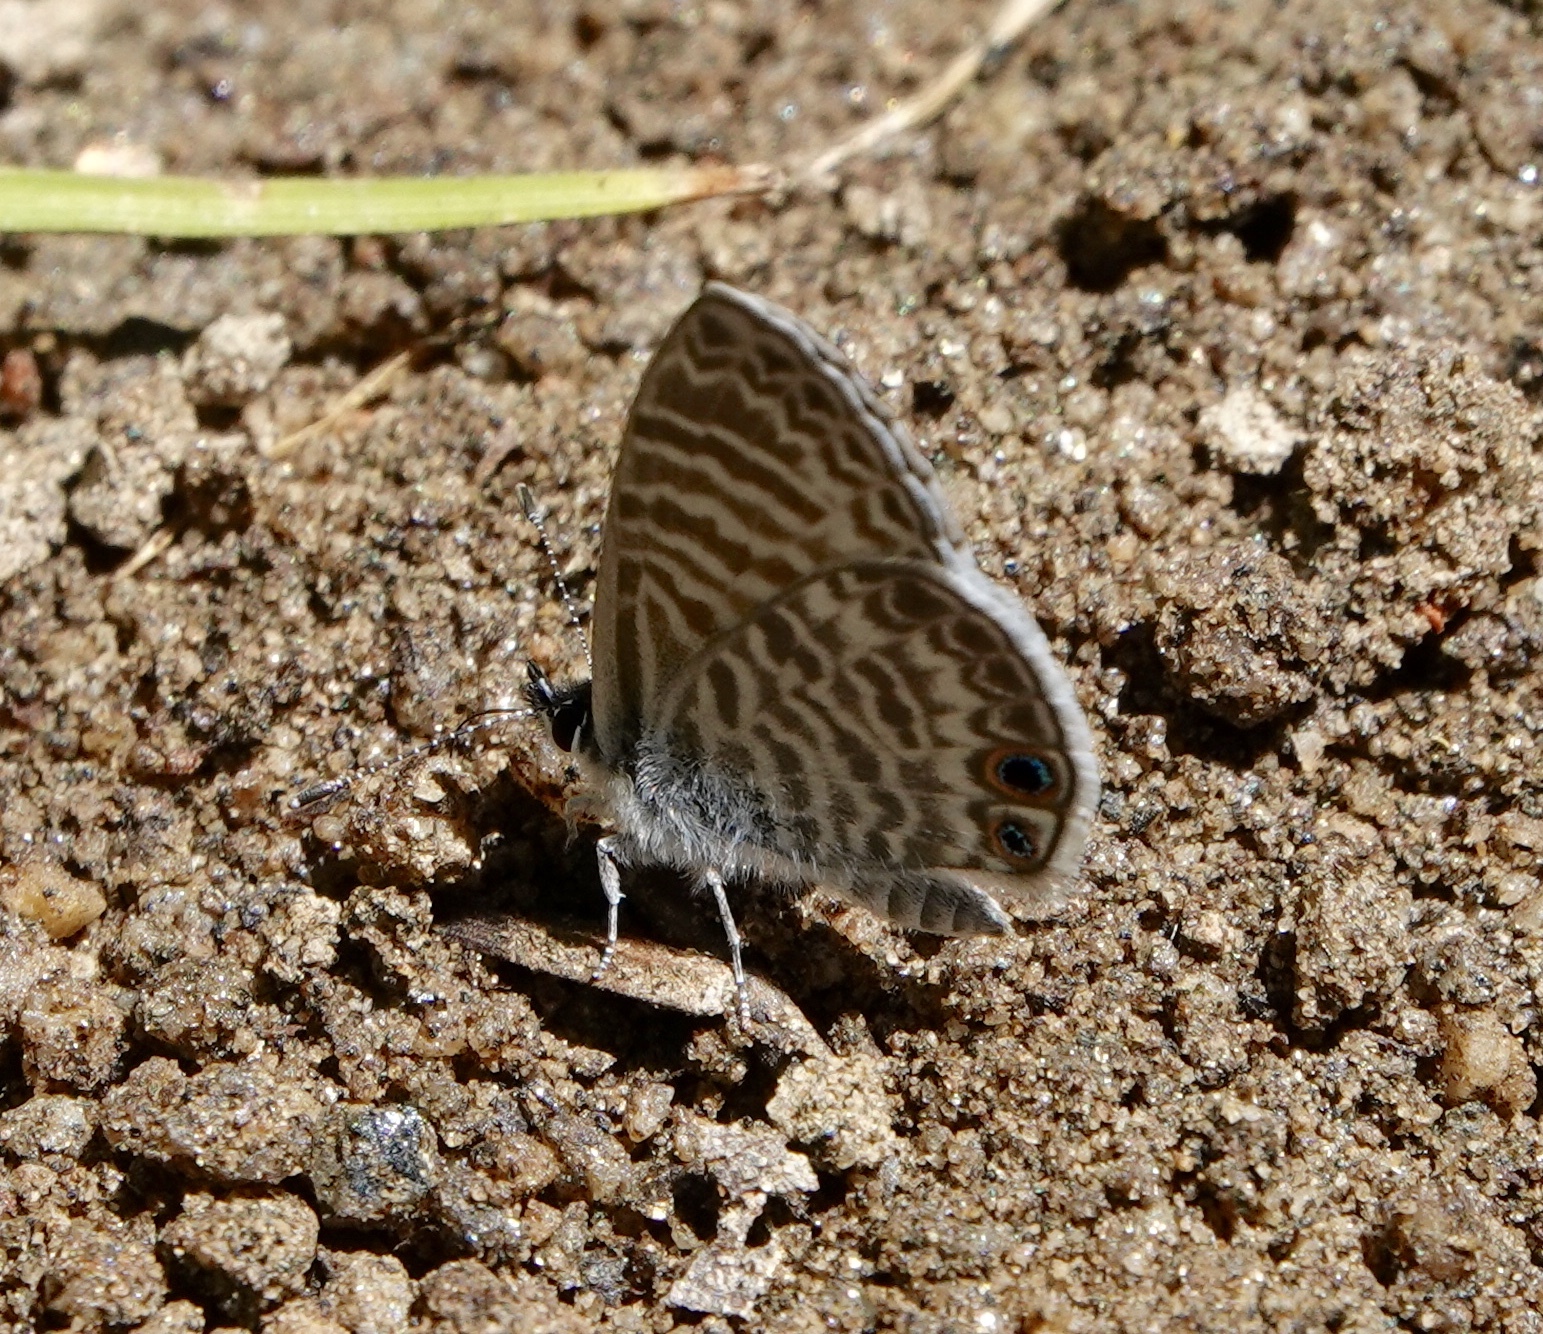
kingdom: Animalia
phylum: Arthropoda
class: Insecta
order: Lepidoptera
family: Lycaenidae
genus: Leptotes
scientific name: Leptotes marina
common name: Marine blue
